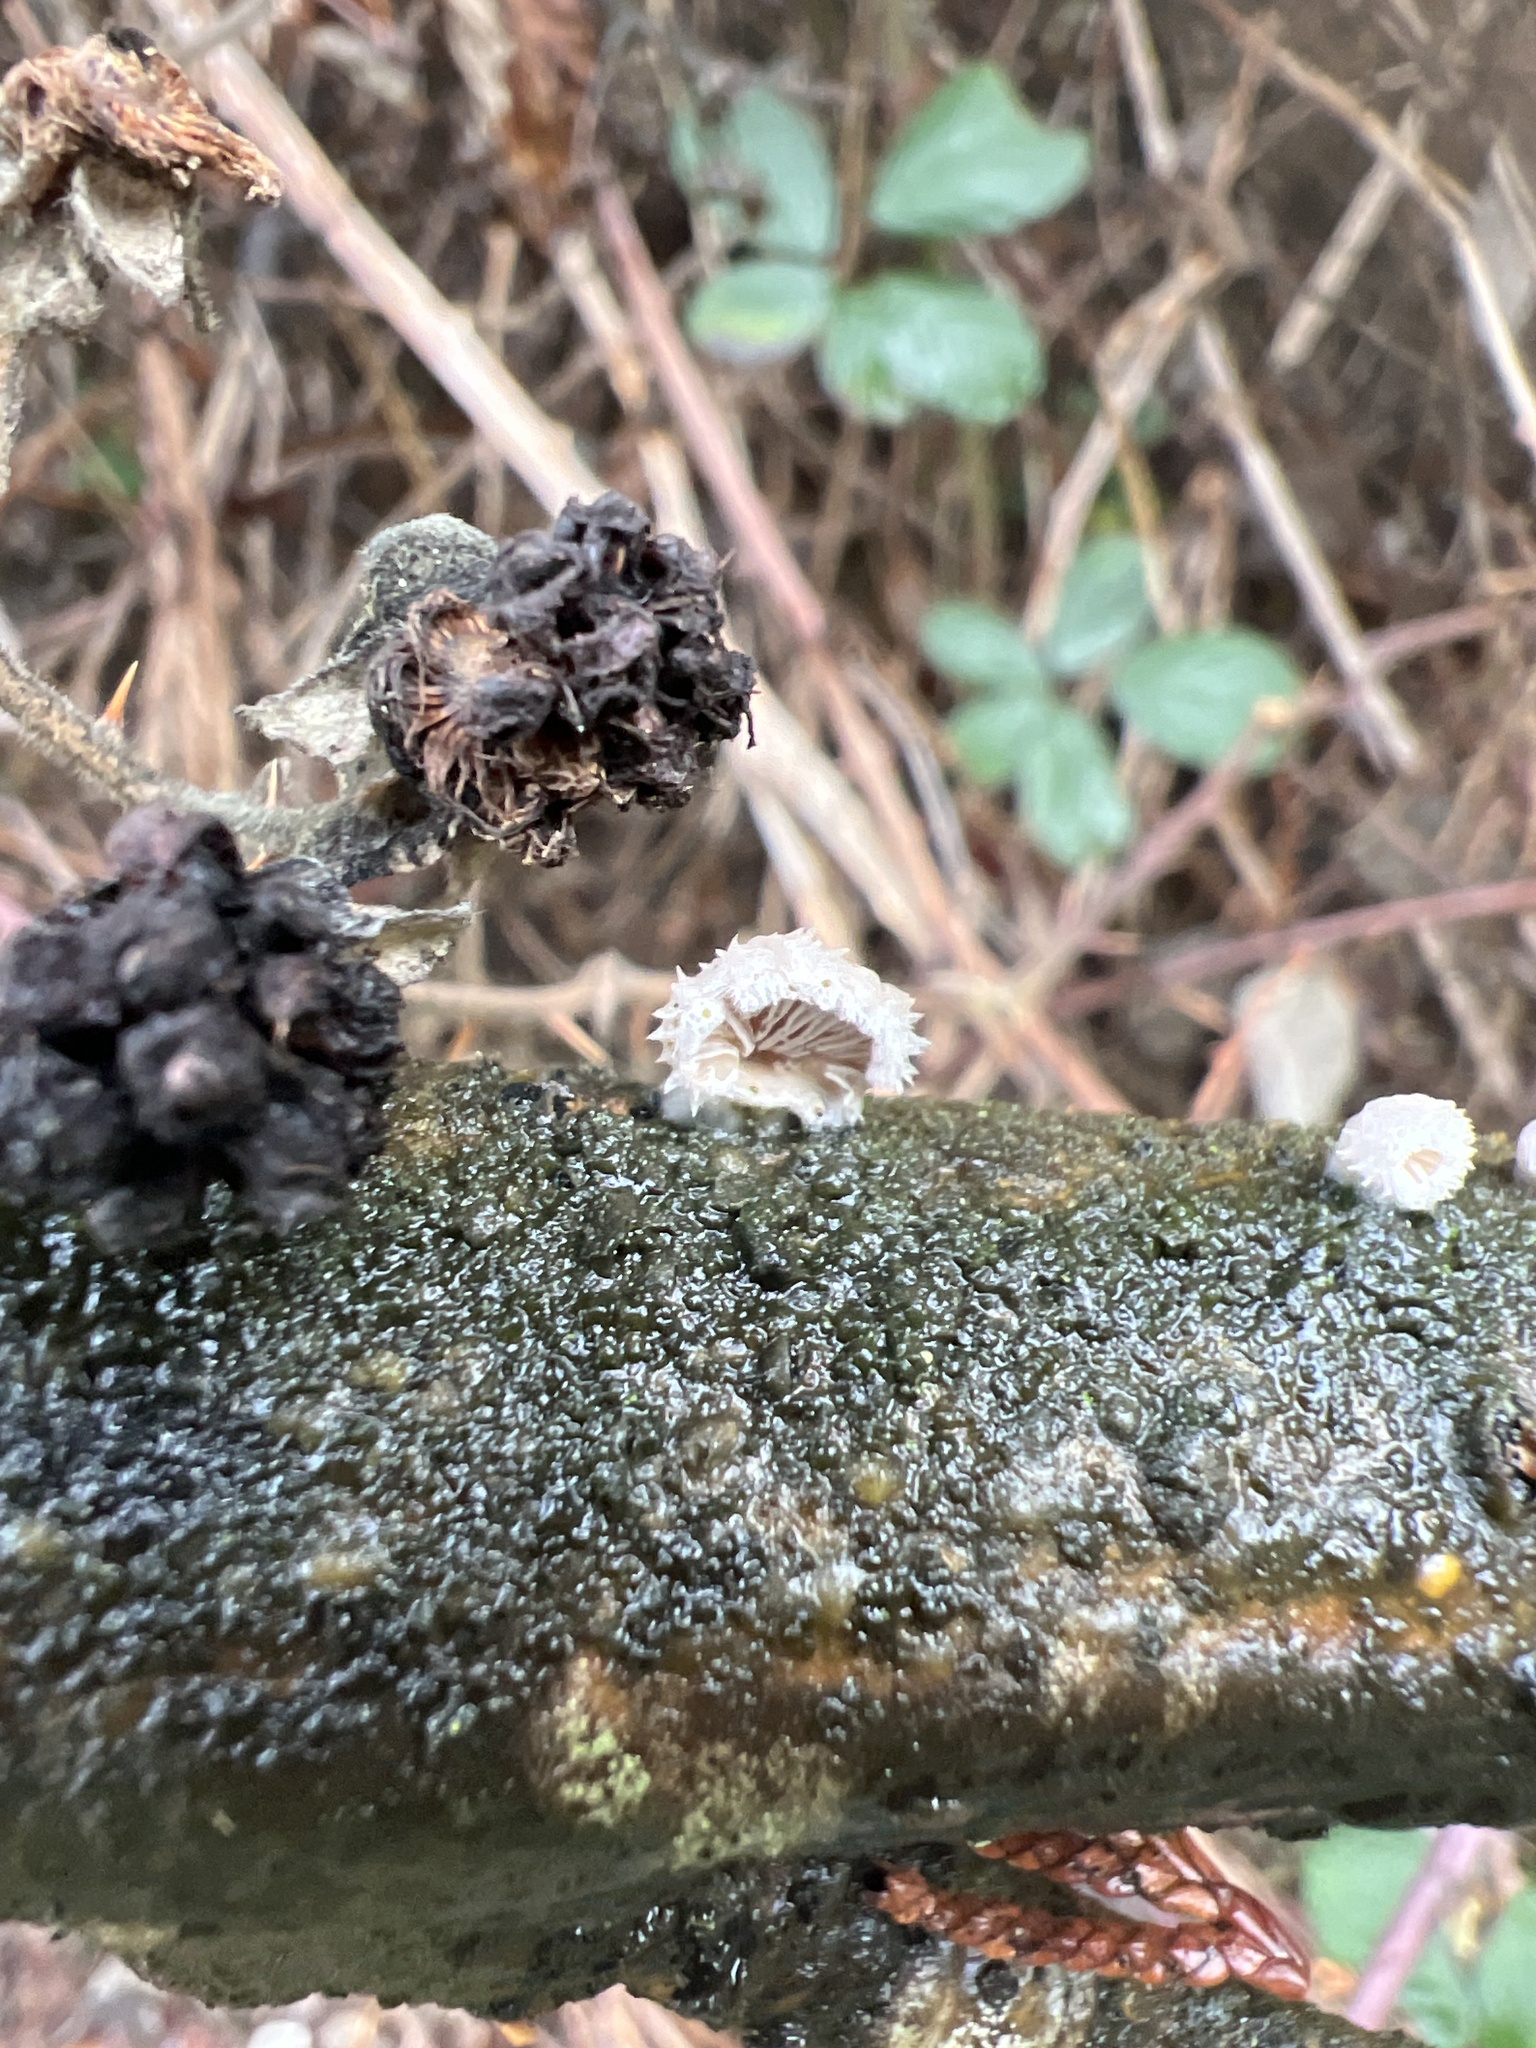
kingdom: Fungi
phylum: Basidiomycota
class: Agaricomycetes
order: Agaricales
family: Schizophyllaceae
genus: Schizophyllum
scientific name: Schizophyllum commune
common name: Common porecrust
